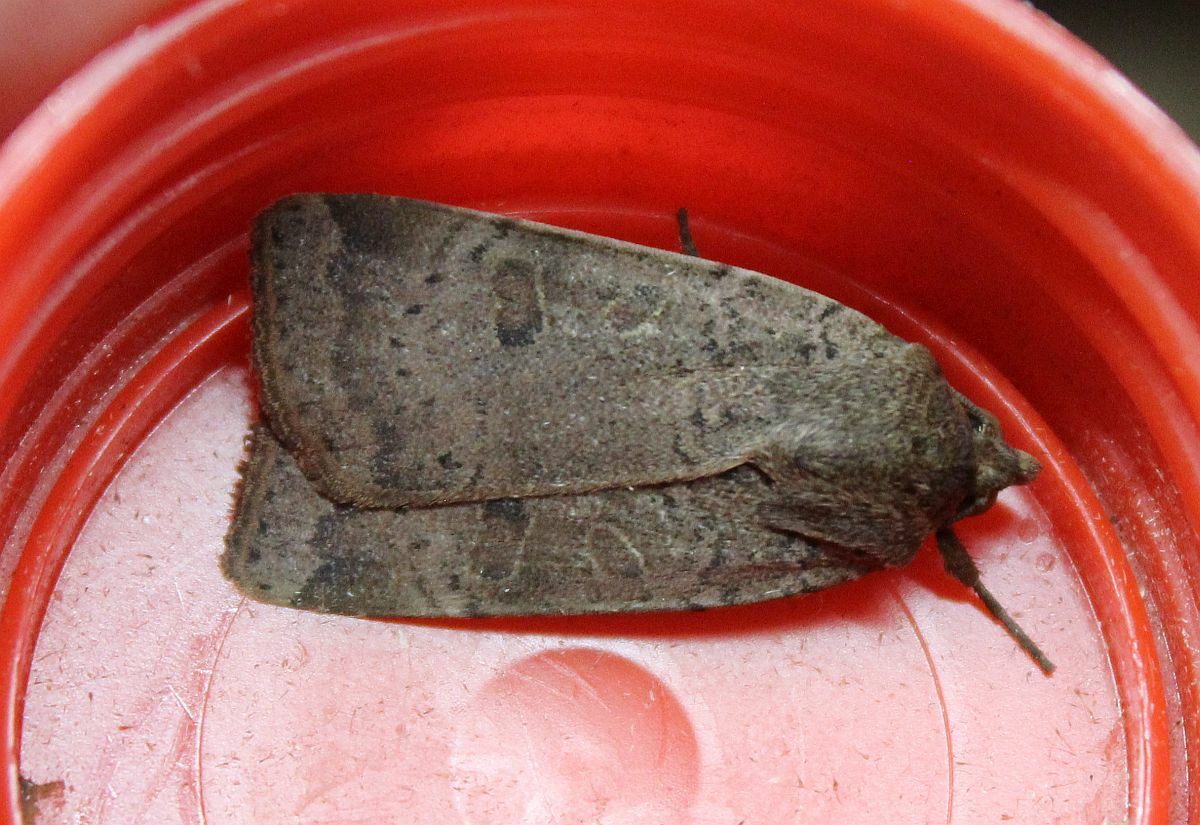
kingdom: Animalia
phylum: Arthropoda
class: Insecta
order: Lepidoptera
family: Noctuidae
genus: Noctua
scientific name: Noctua comes
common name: Lesser yellow underwing
